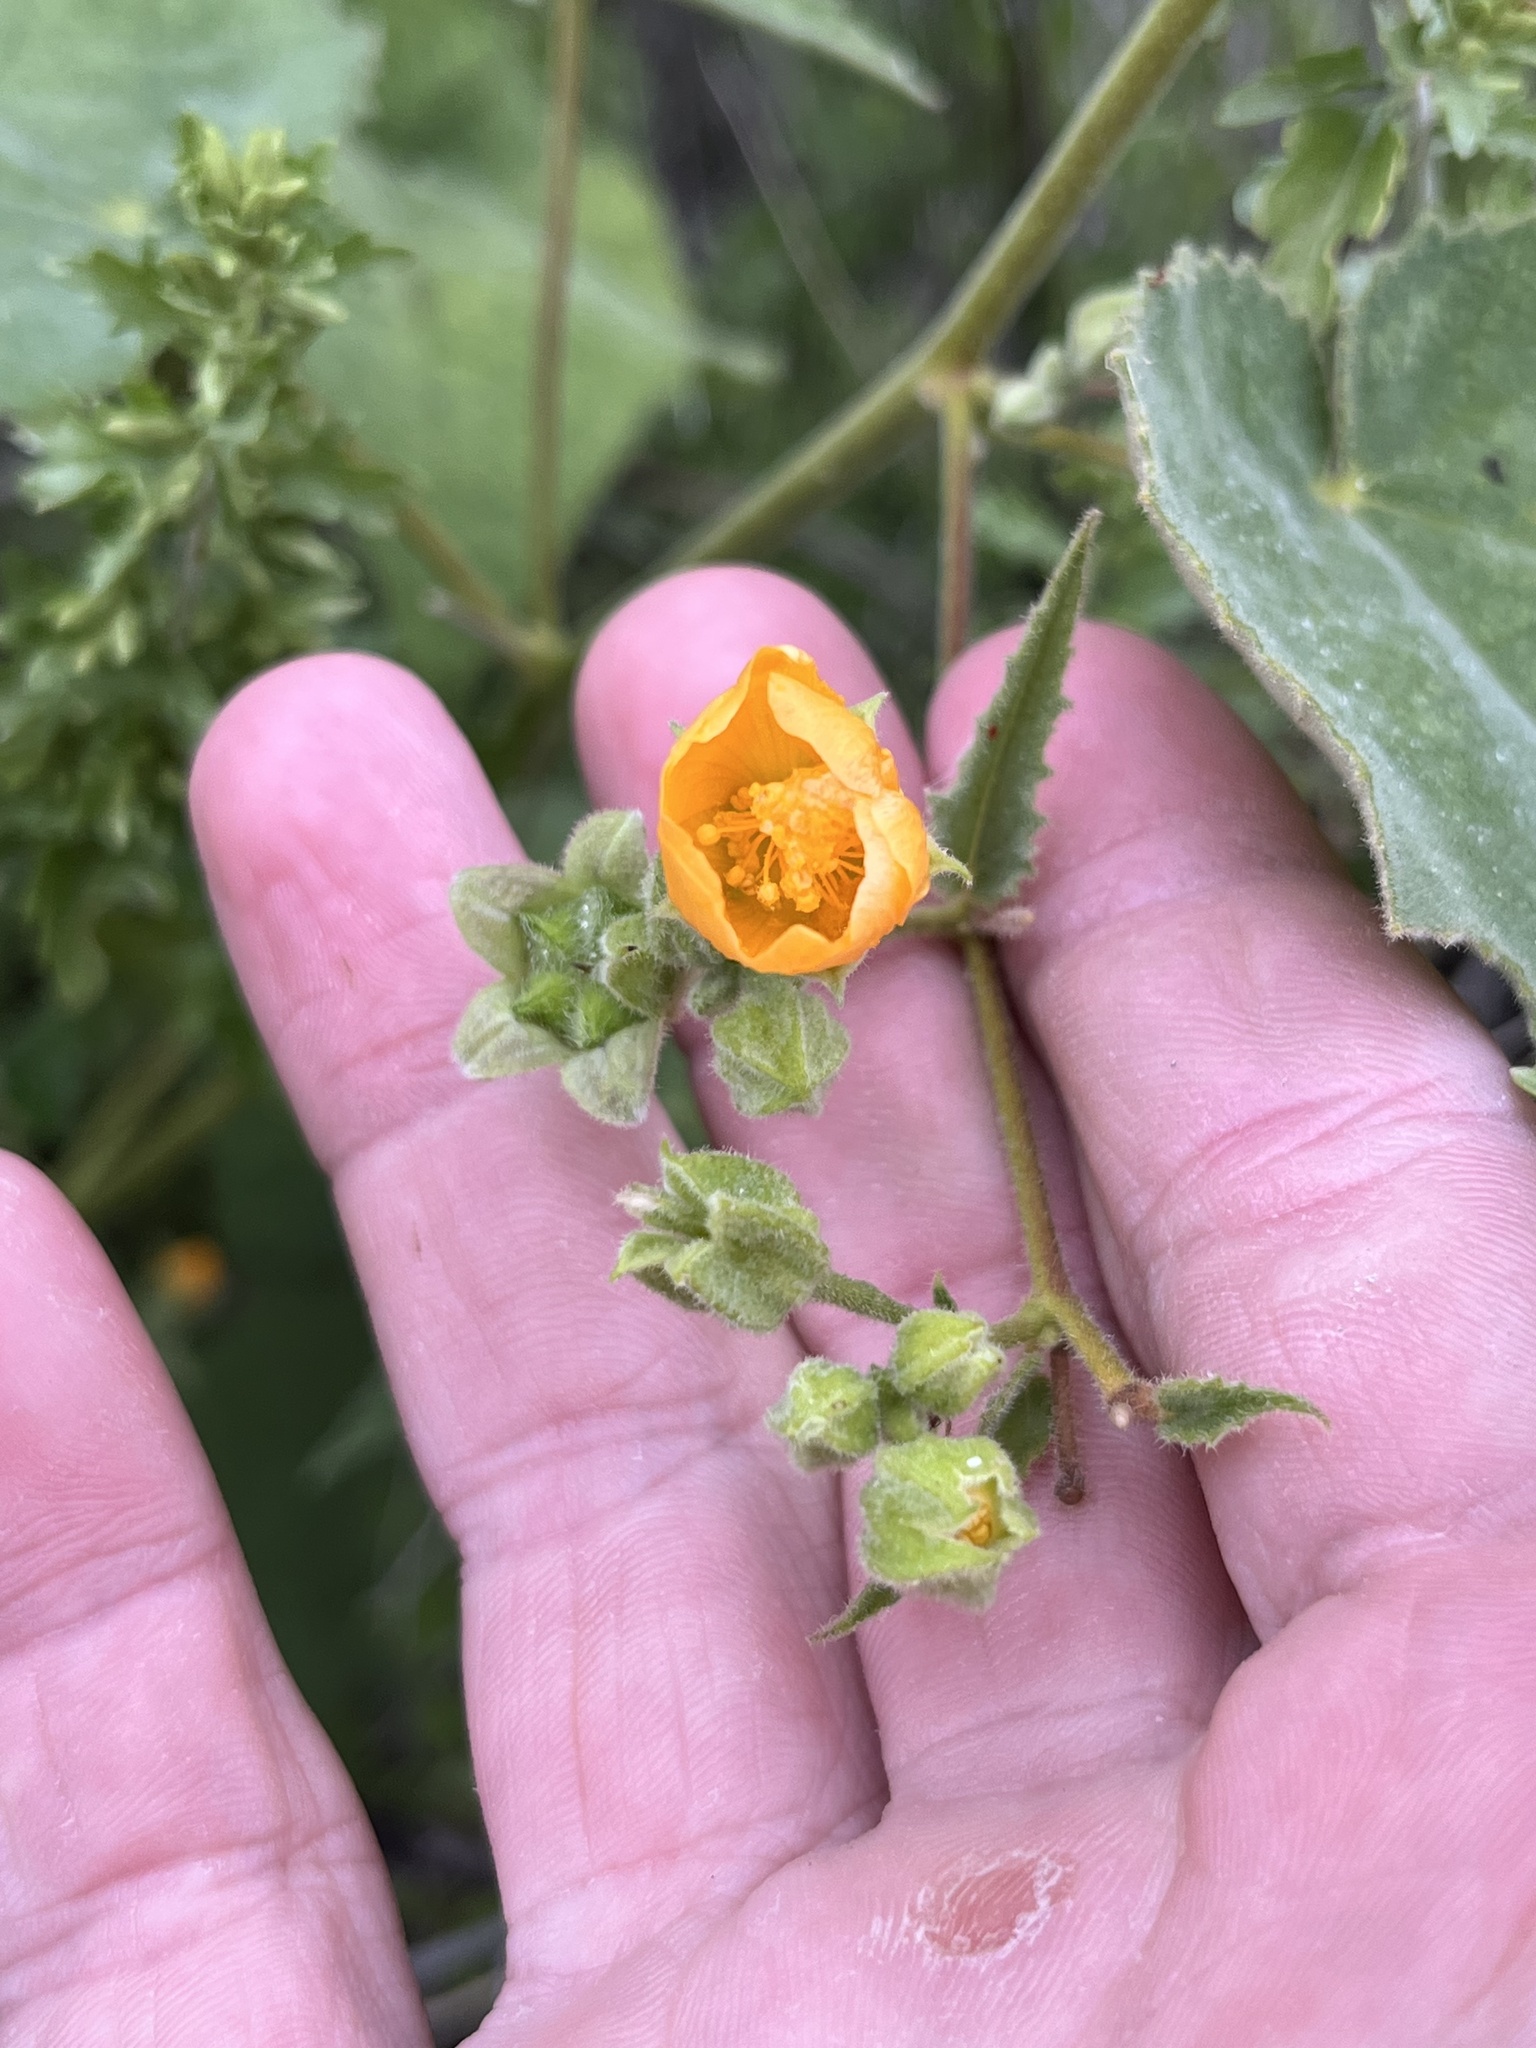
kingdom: Plantae
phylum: Tracheophyta
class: Magnoliopsida
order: Malvales
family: Malvaceae
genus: Allowissadula
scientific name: Allowissadula holosericea
